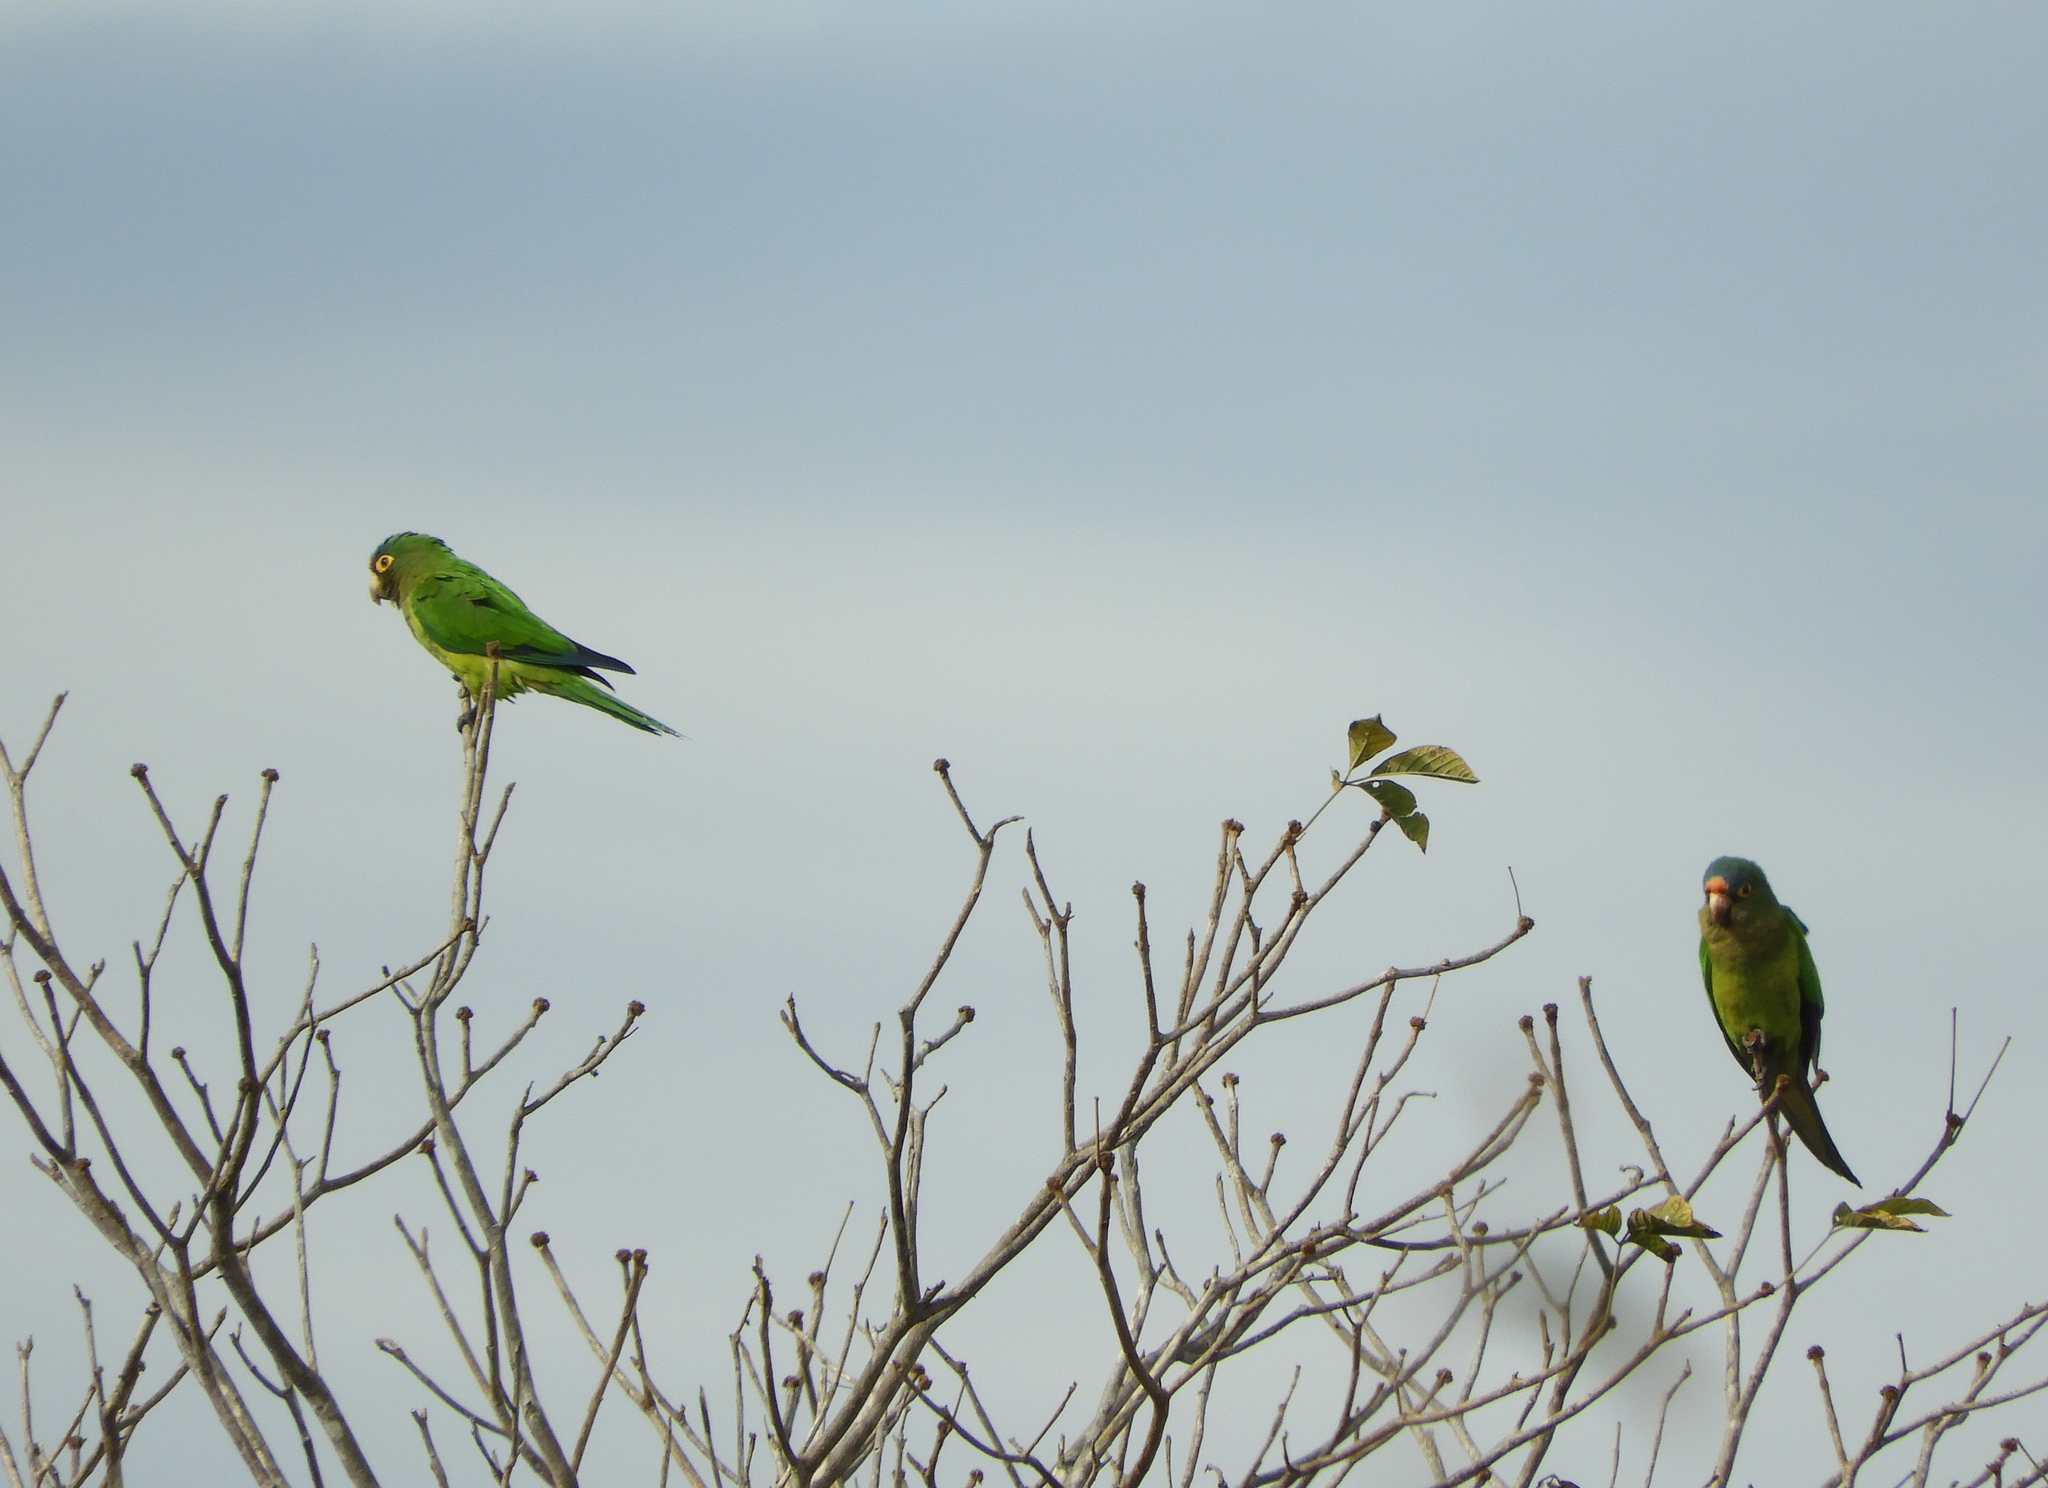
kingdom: Animalia
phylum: Chordata
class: Aves
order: Psittaciformes
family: Psittacidae
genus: Aratinga
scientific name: Aratinga canicularis
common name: Orange-fronted parakeet
